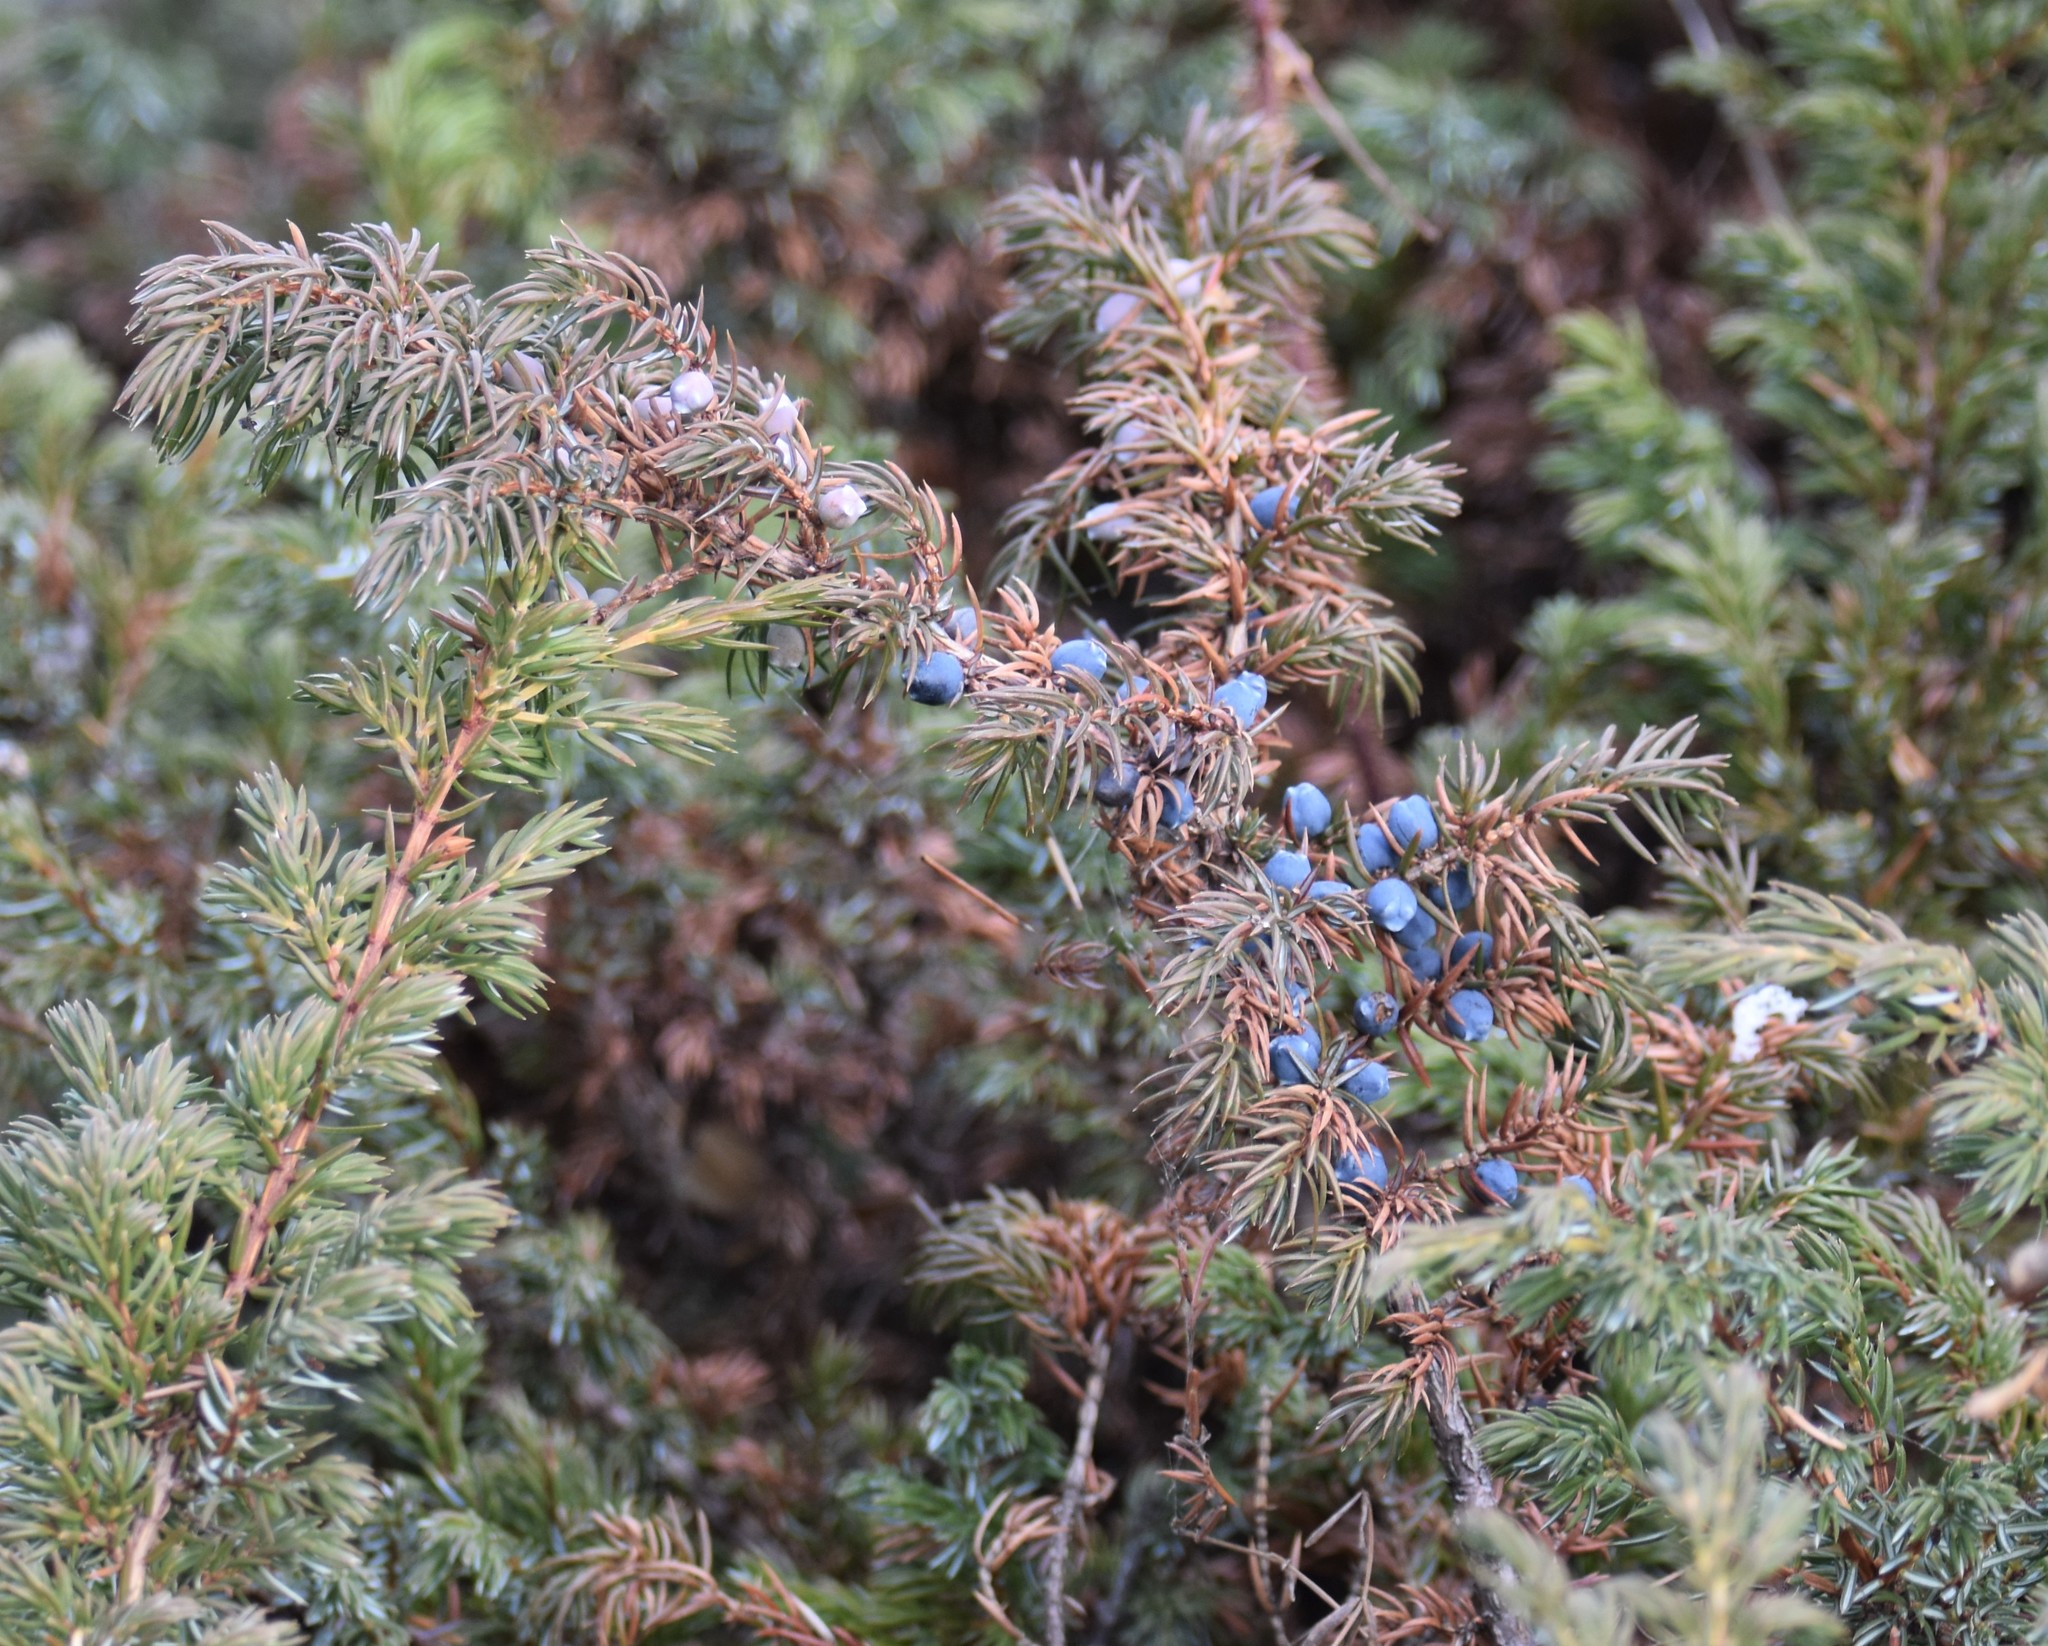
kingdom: Plantae
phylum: Tracheophyta
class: Pinopsida
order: Pinales
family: Cupressaceae
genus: Juniperus
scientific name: Juniperus communis
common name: Common juniper
